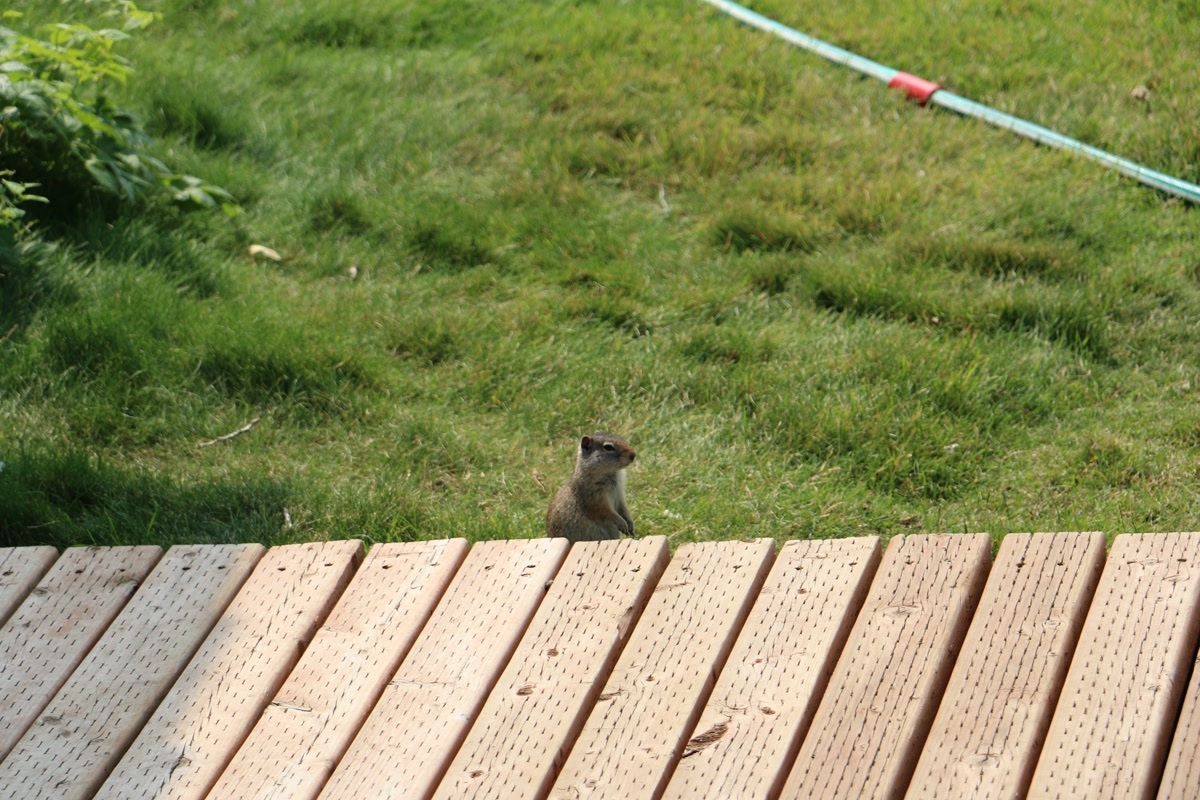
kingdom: Animalia
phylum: Chordata
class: Mammalia
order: Rodentia
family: Sciuridae
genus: Urocitellus
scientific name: Urocitellus armatus
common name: Uinta ground squirrel
